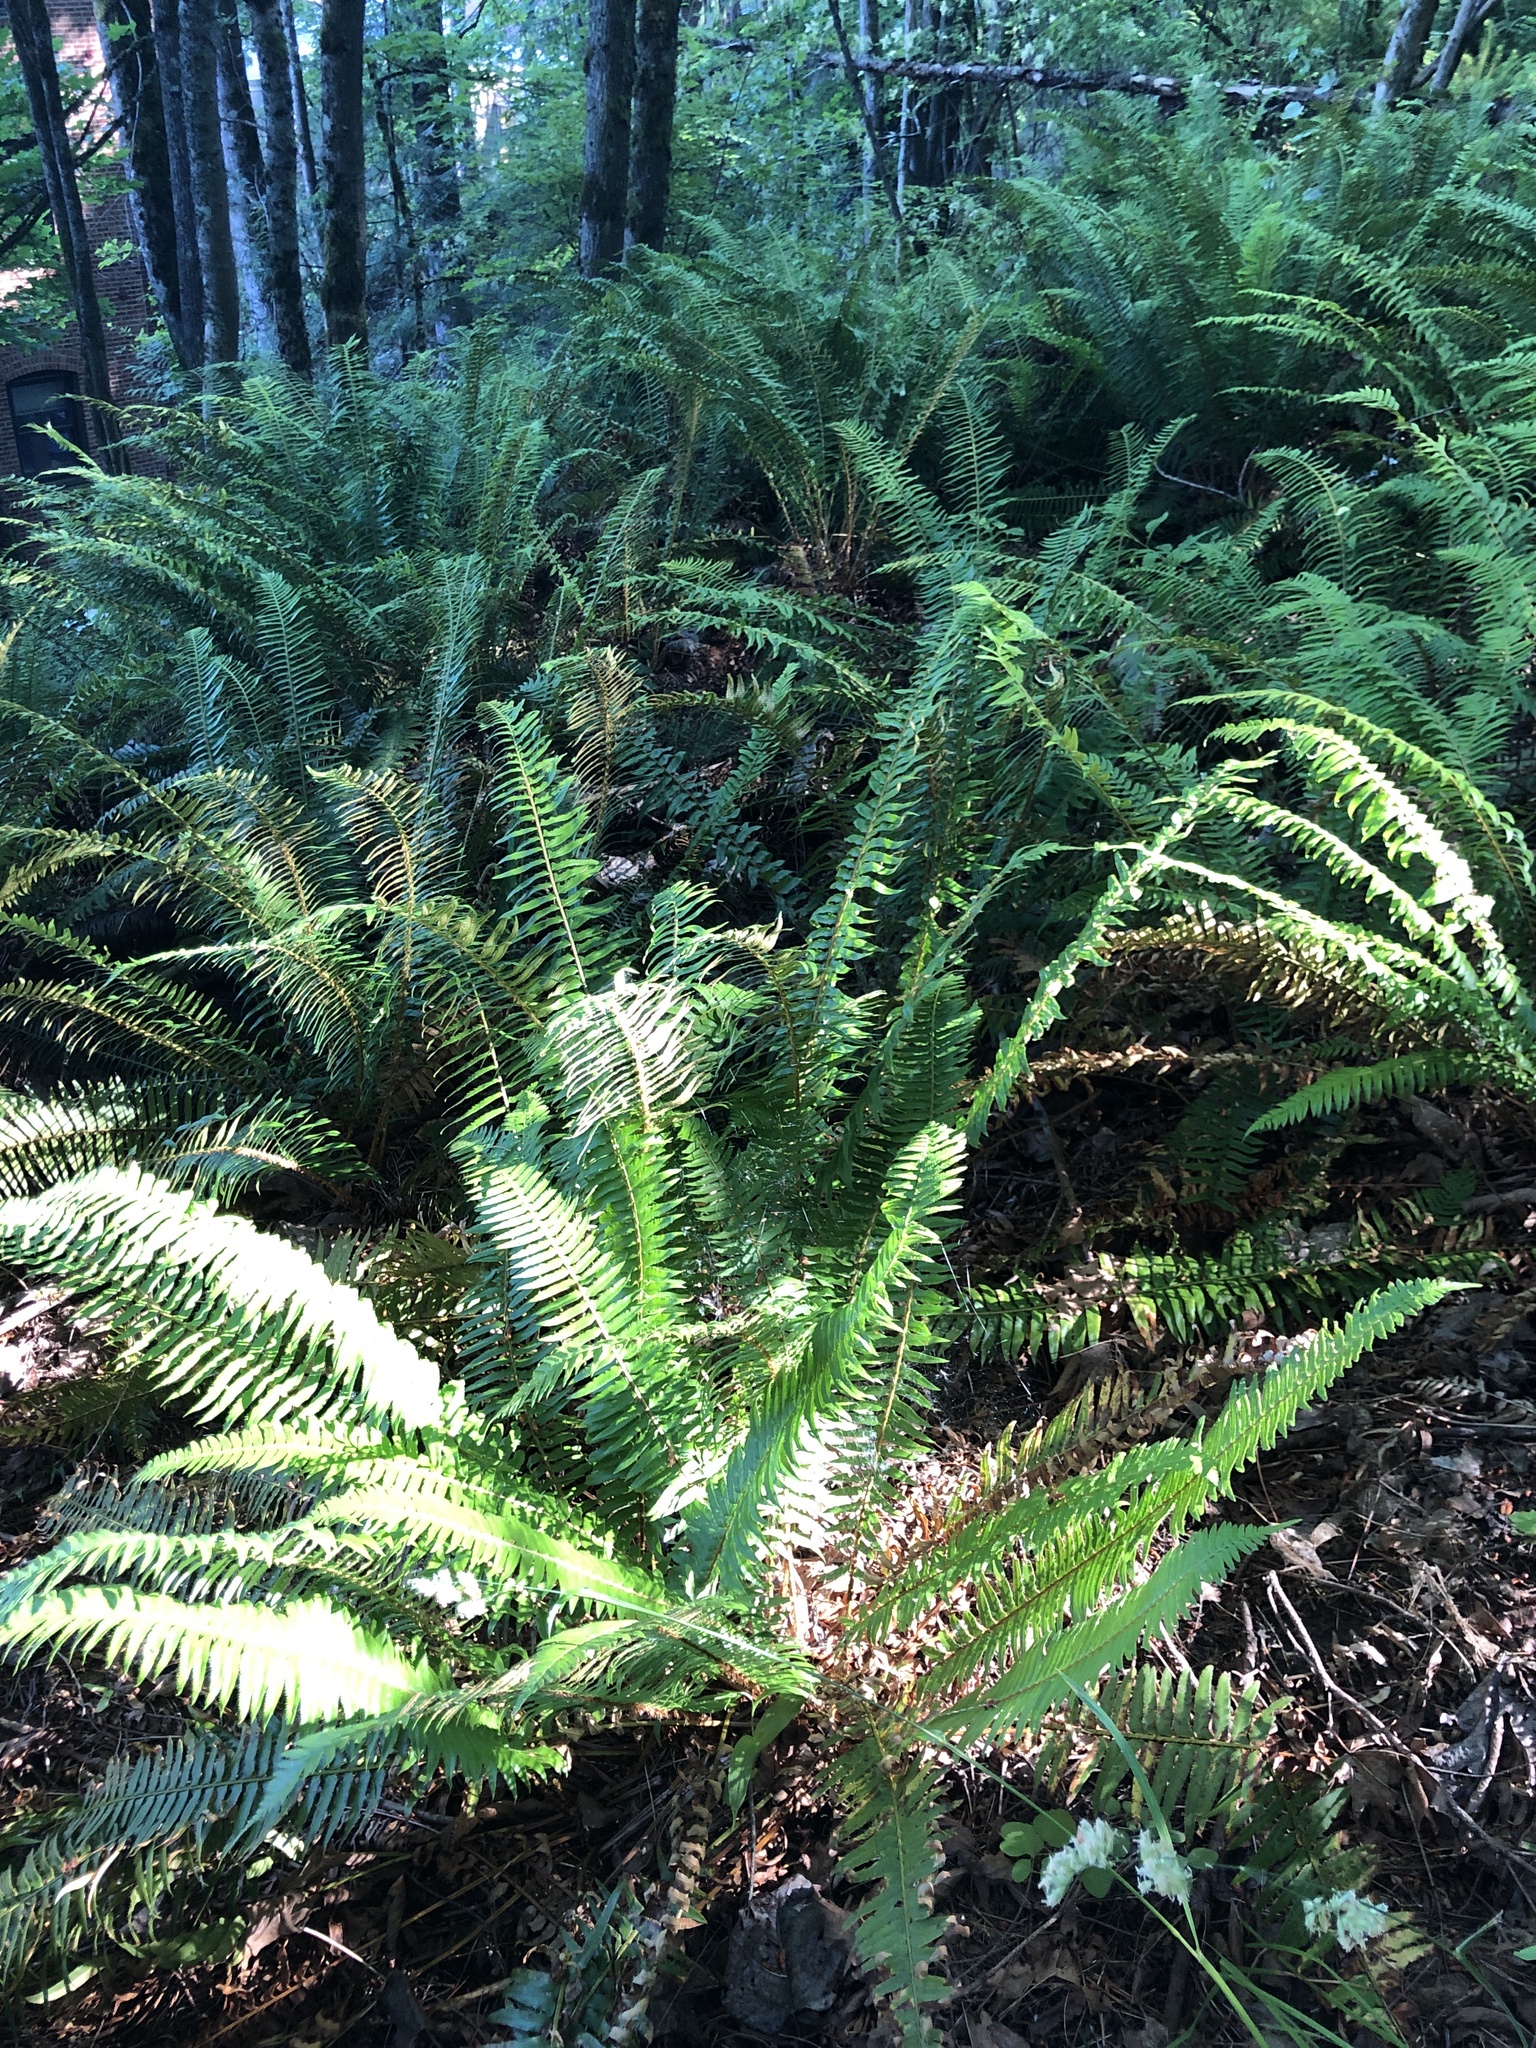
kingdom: Plantae
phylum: Tracheophyta
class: Polypodiopsida
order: Polypodiales
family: Dryopteridaceae
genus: Polystichum
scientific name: Polystichum munitum
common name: Western sword-fern
